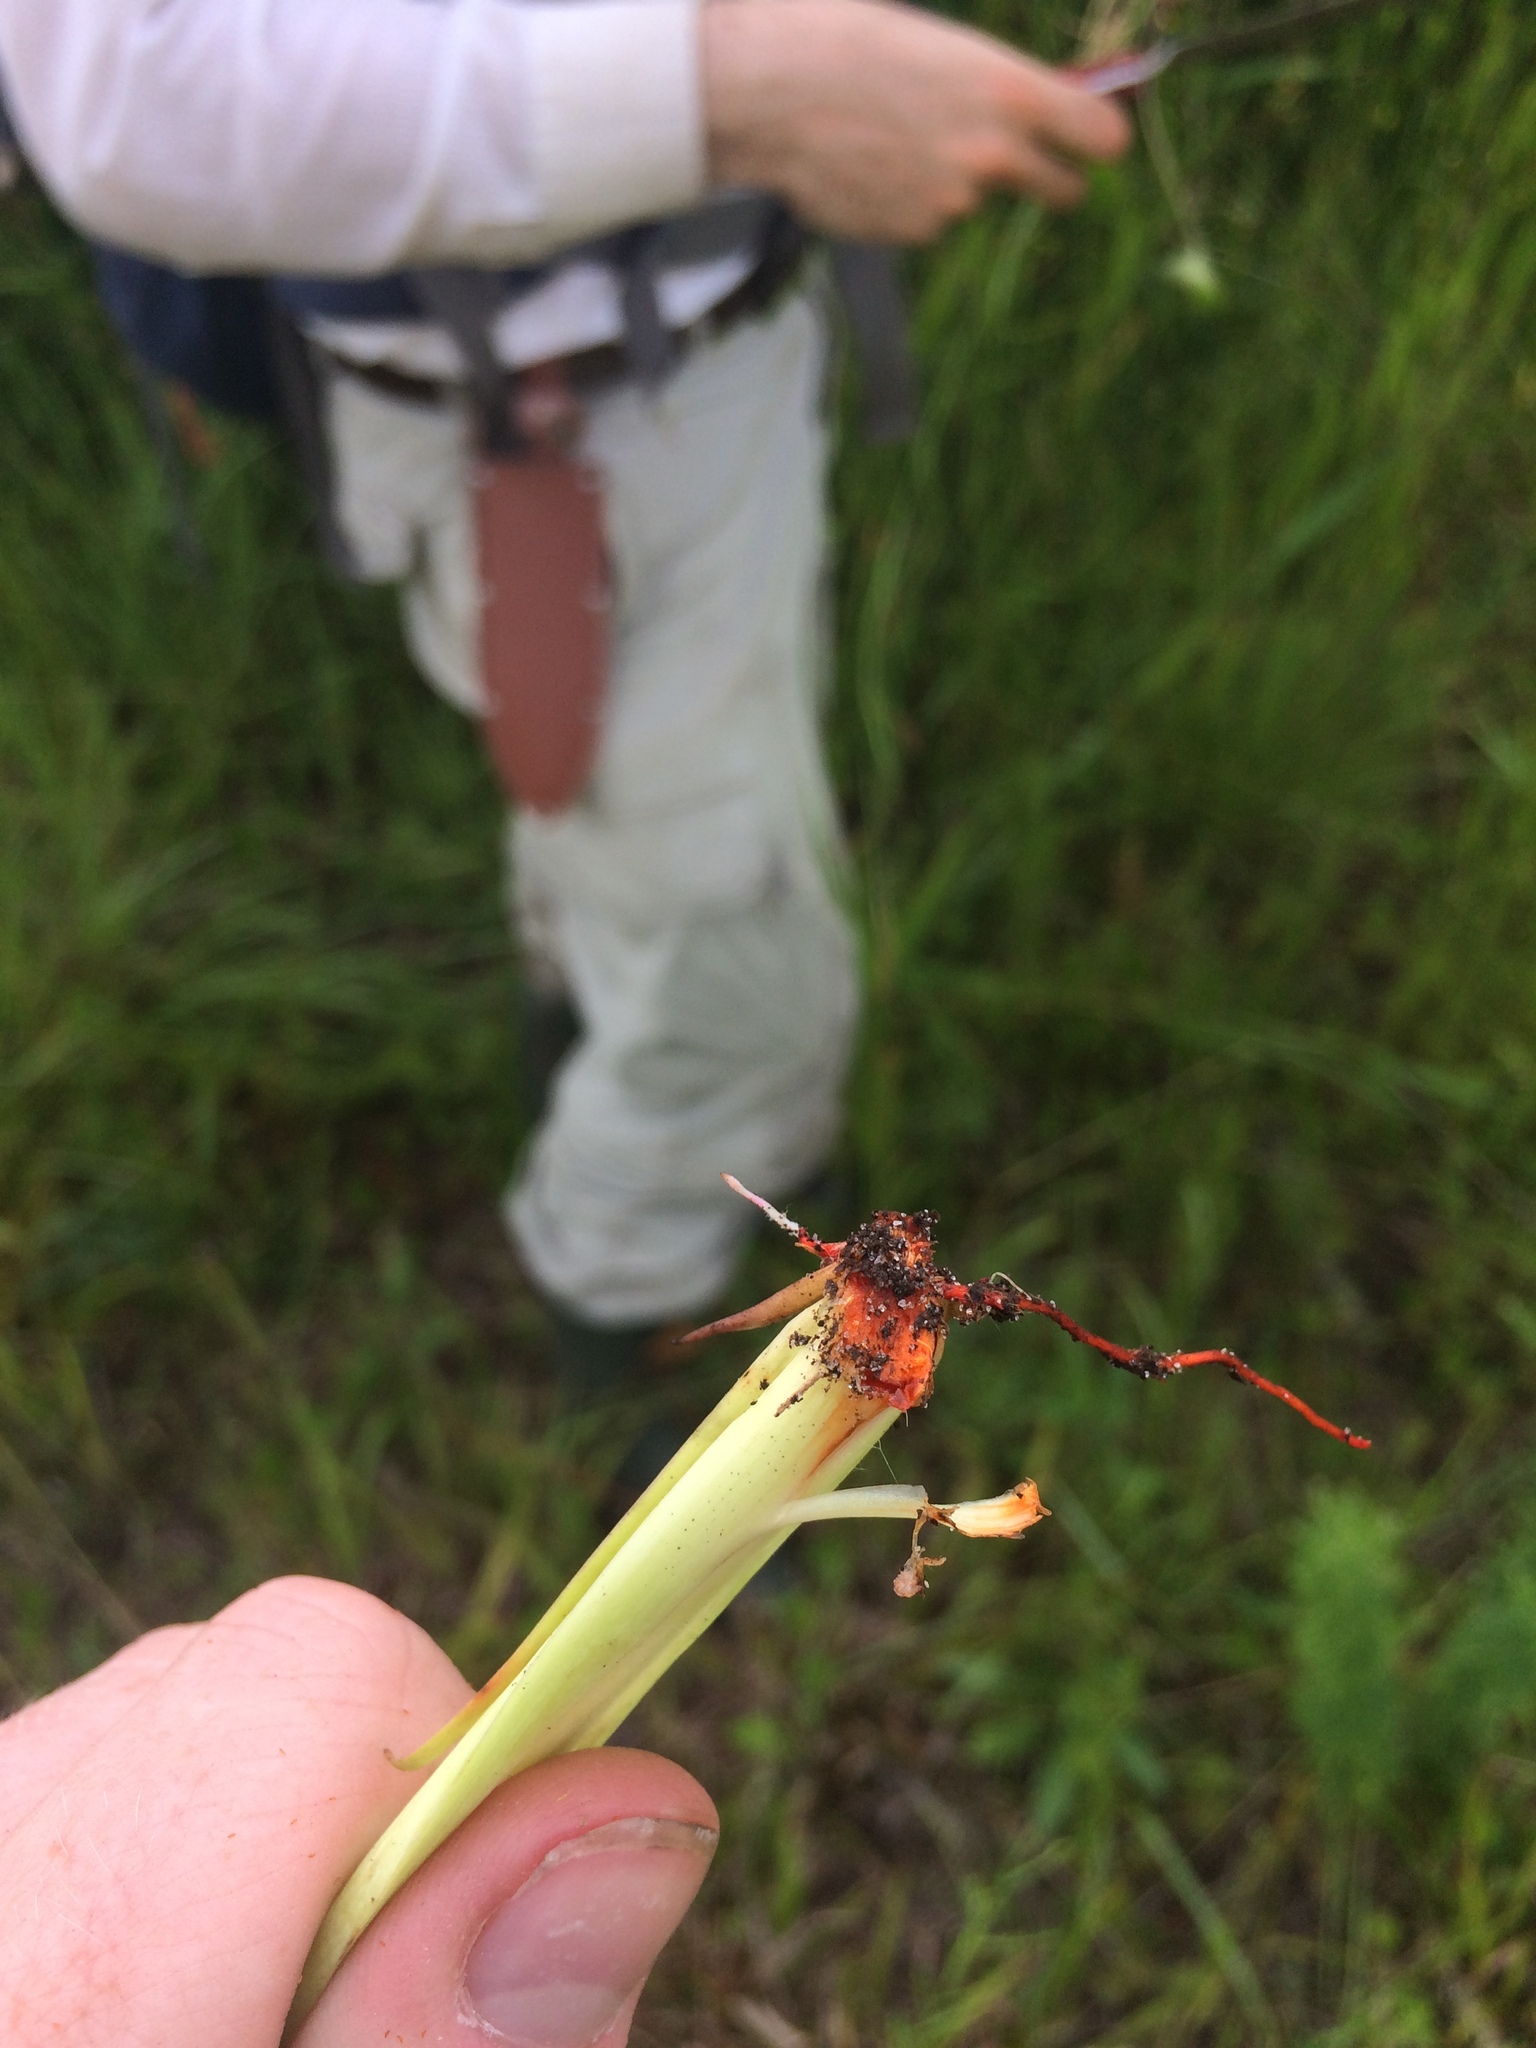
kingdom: Plantae
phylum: Tracheophyta
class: Liliopsida
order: Commelinales
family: Haemodoraceae
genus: Lachnanthes
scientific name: Lachnanthes caroliana
